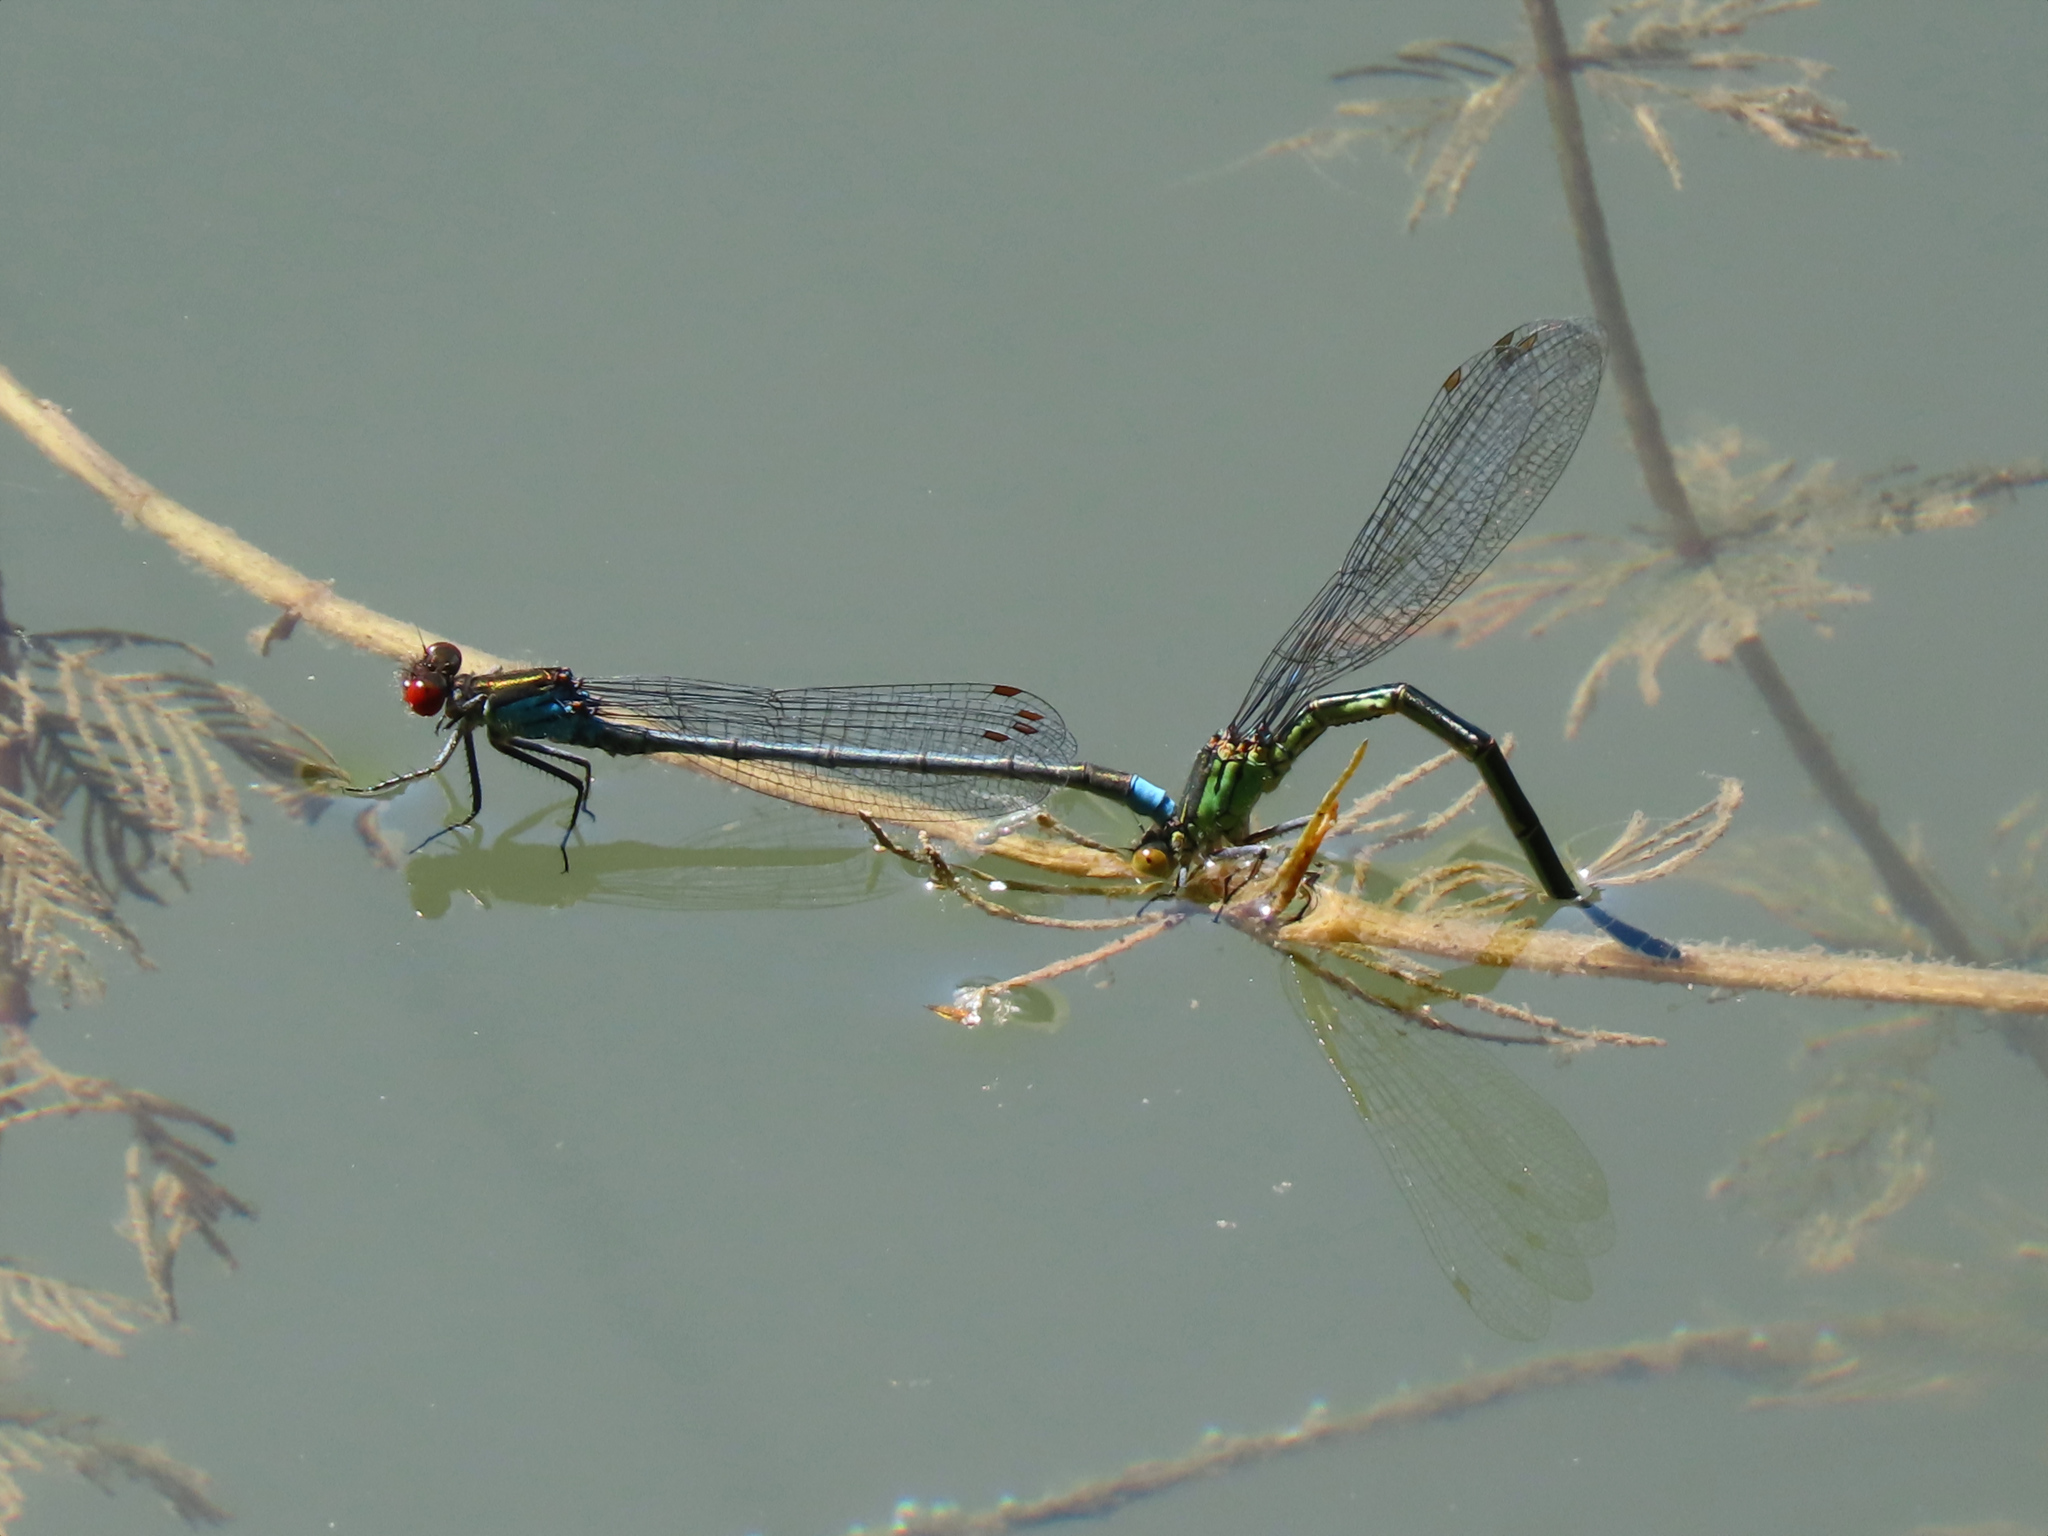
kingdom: Animalia
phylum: Arthropoda
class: Insecta
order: Odonata
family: Coenagrionidae
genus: Erythromma
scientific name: Erythromma najas
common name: Red-eyed damselfly
